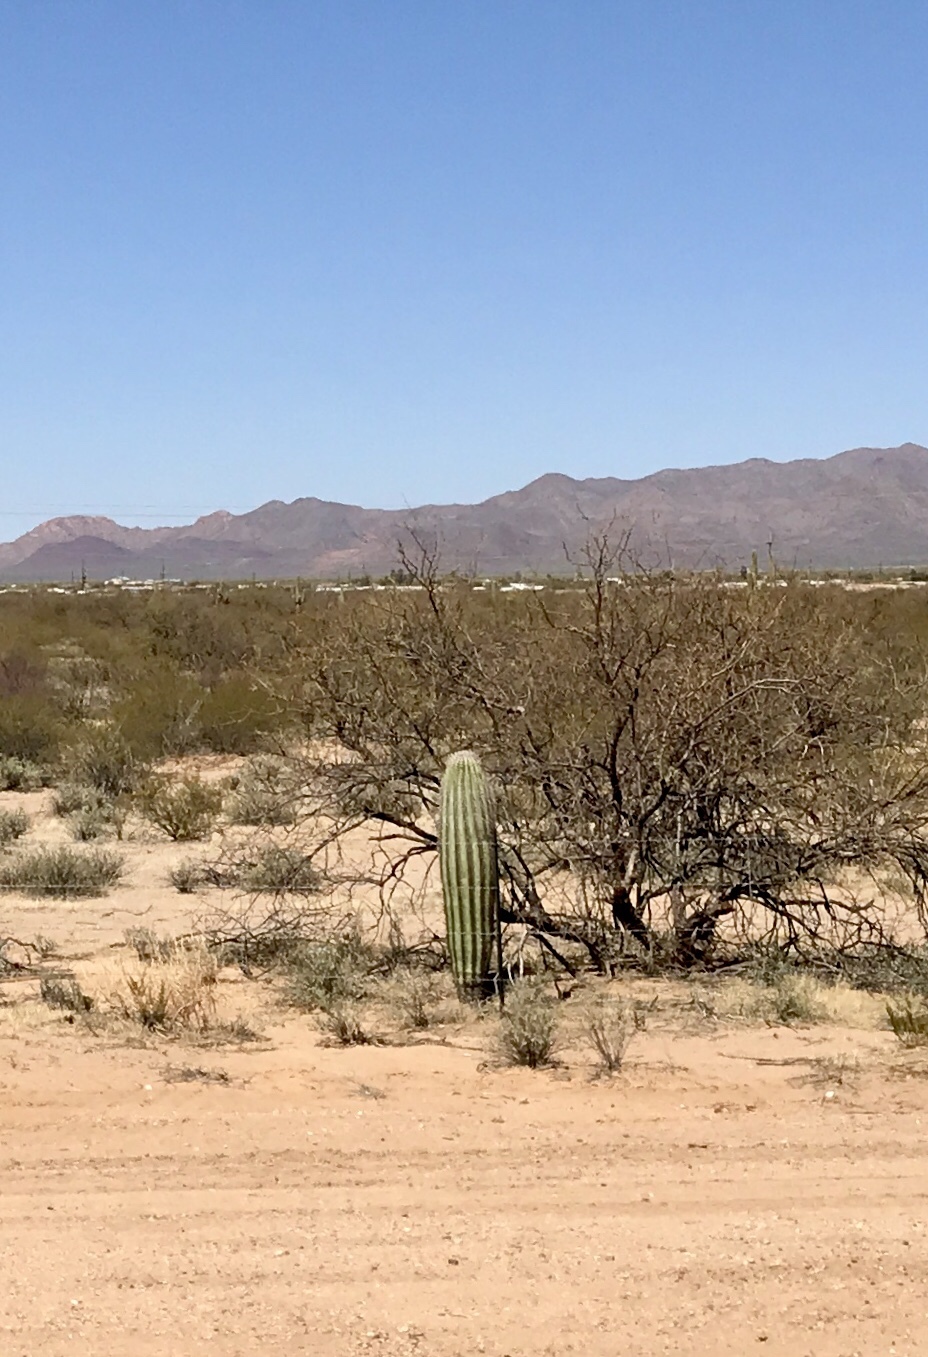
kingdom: Plantae
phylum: Tracheophyta
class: Magnoliopsida
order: Caryophyllales
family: Cactaceae
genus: Carnegiea
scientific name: Carnegiea gigantea
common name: Saguaro
